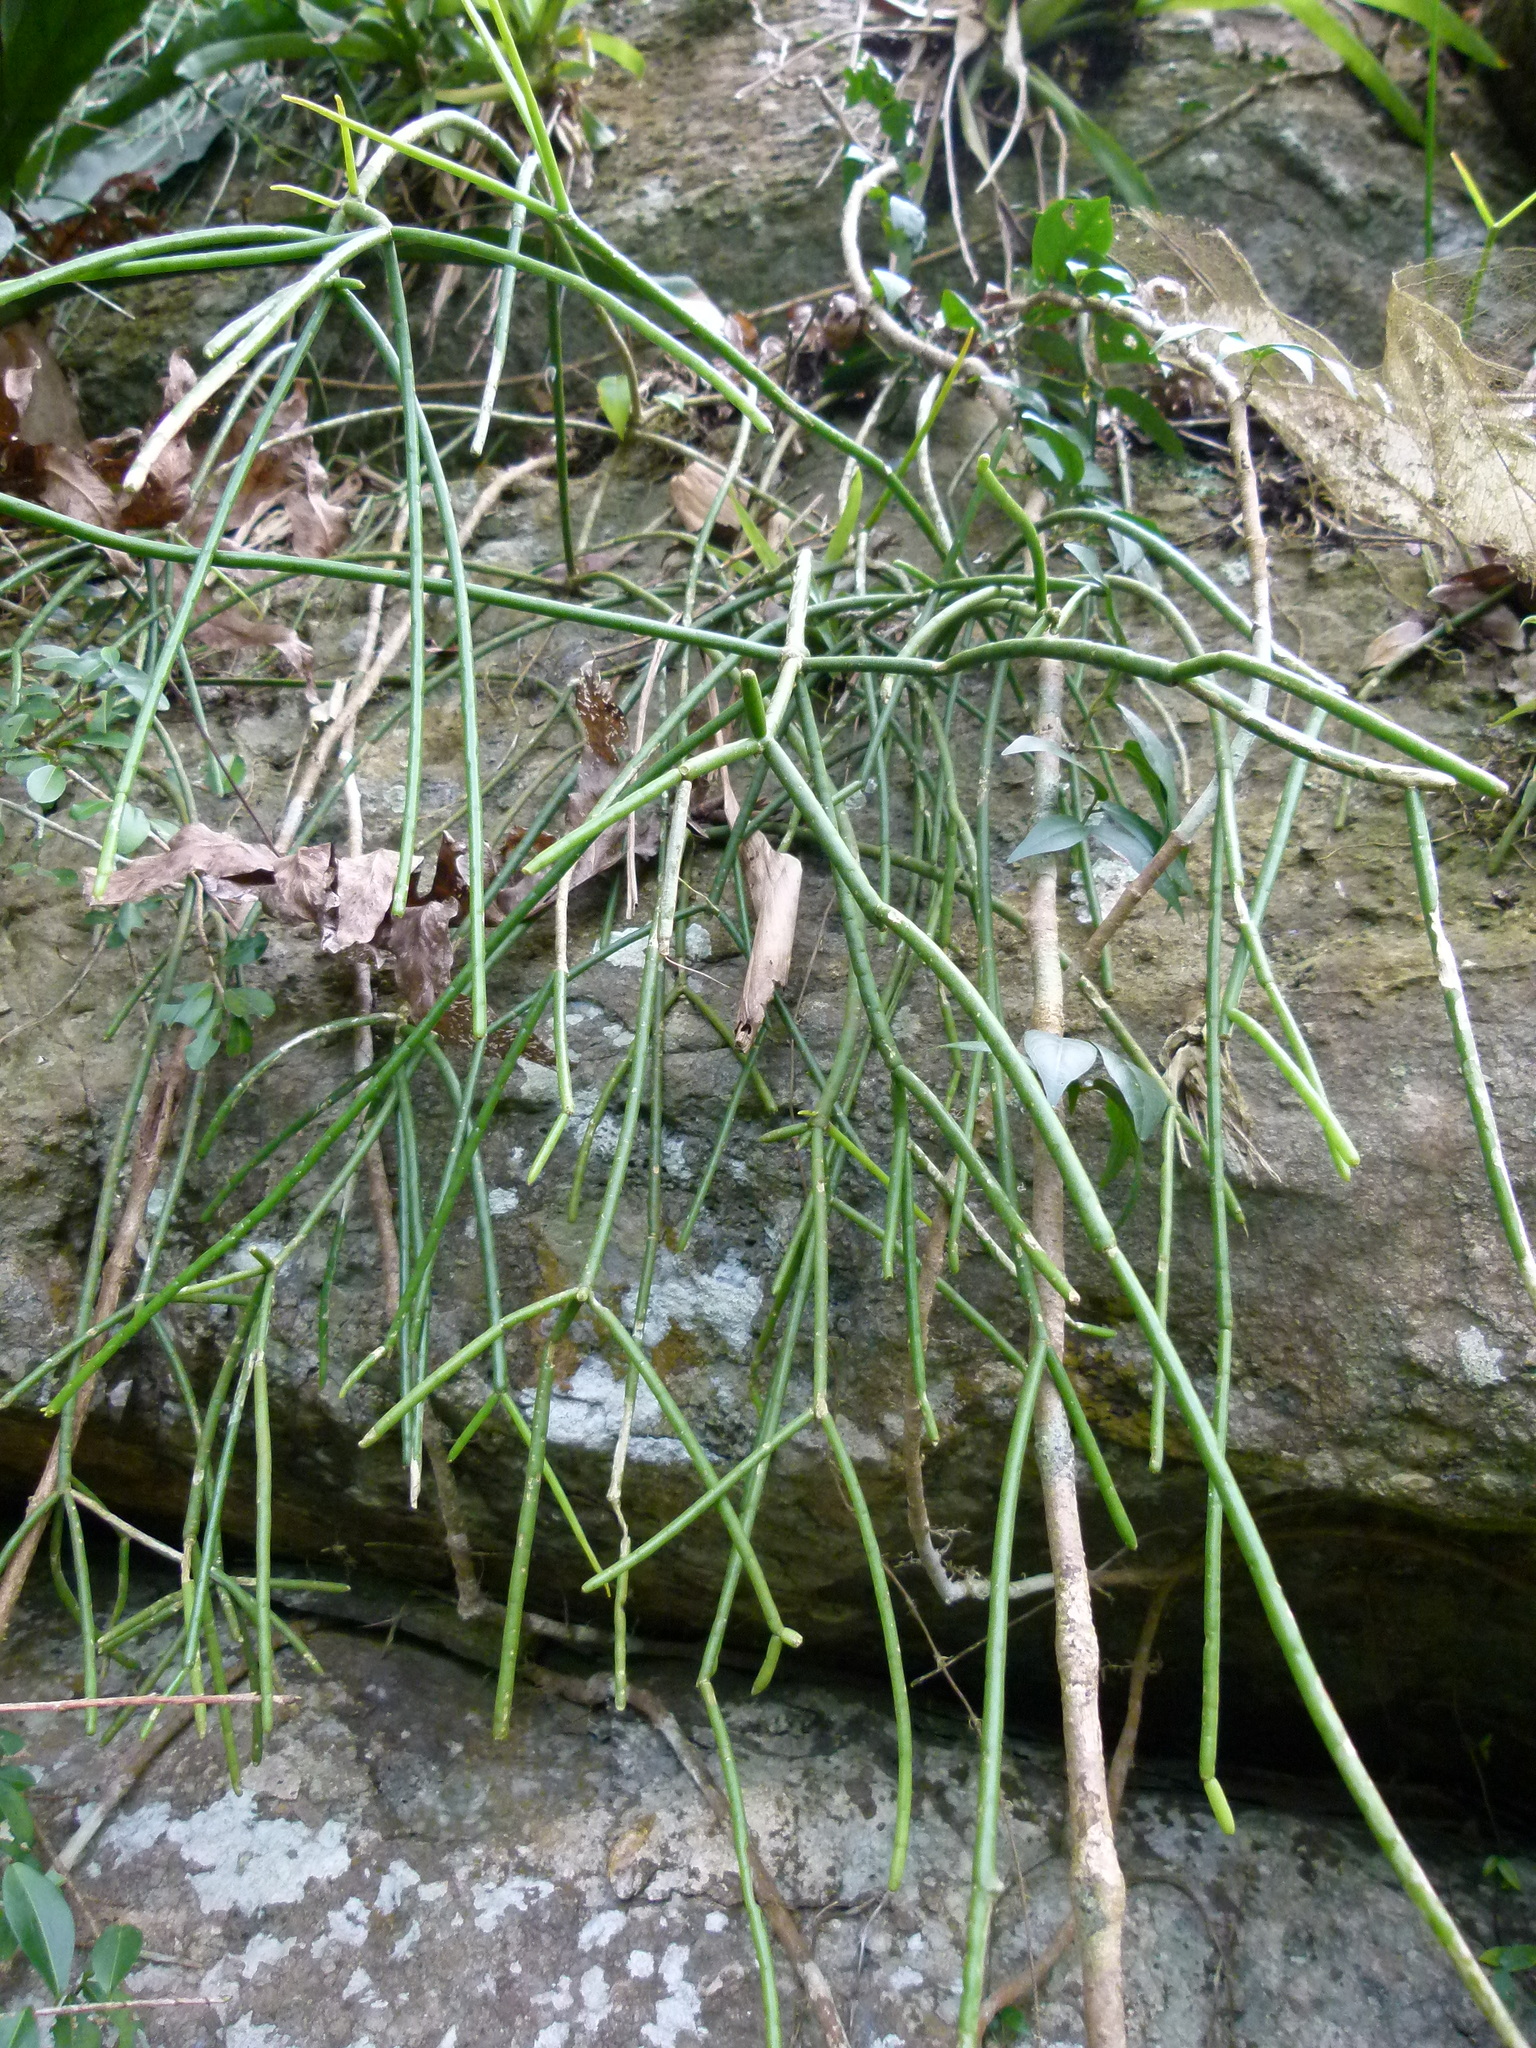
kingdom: Plantae
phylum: Tracheophyta
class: Magnoliopsida
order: Caryophyllales
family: Cactaceae
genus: Rhipsalis
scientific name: Rhipsalis baccifera
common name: Mistletoe cactus
